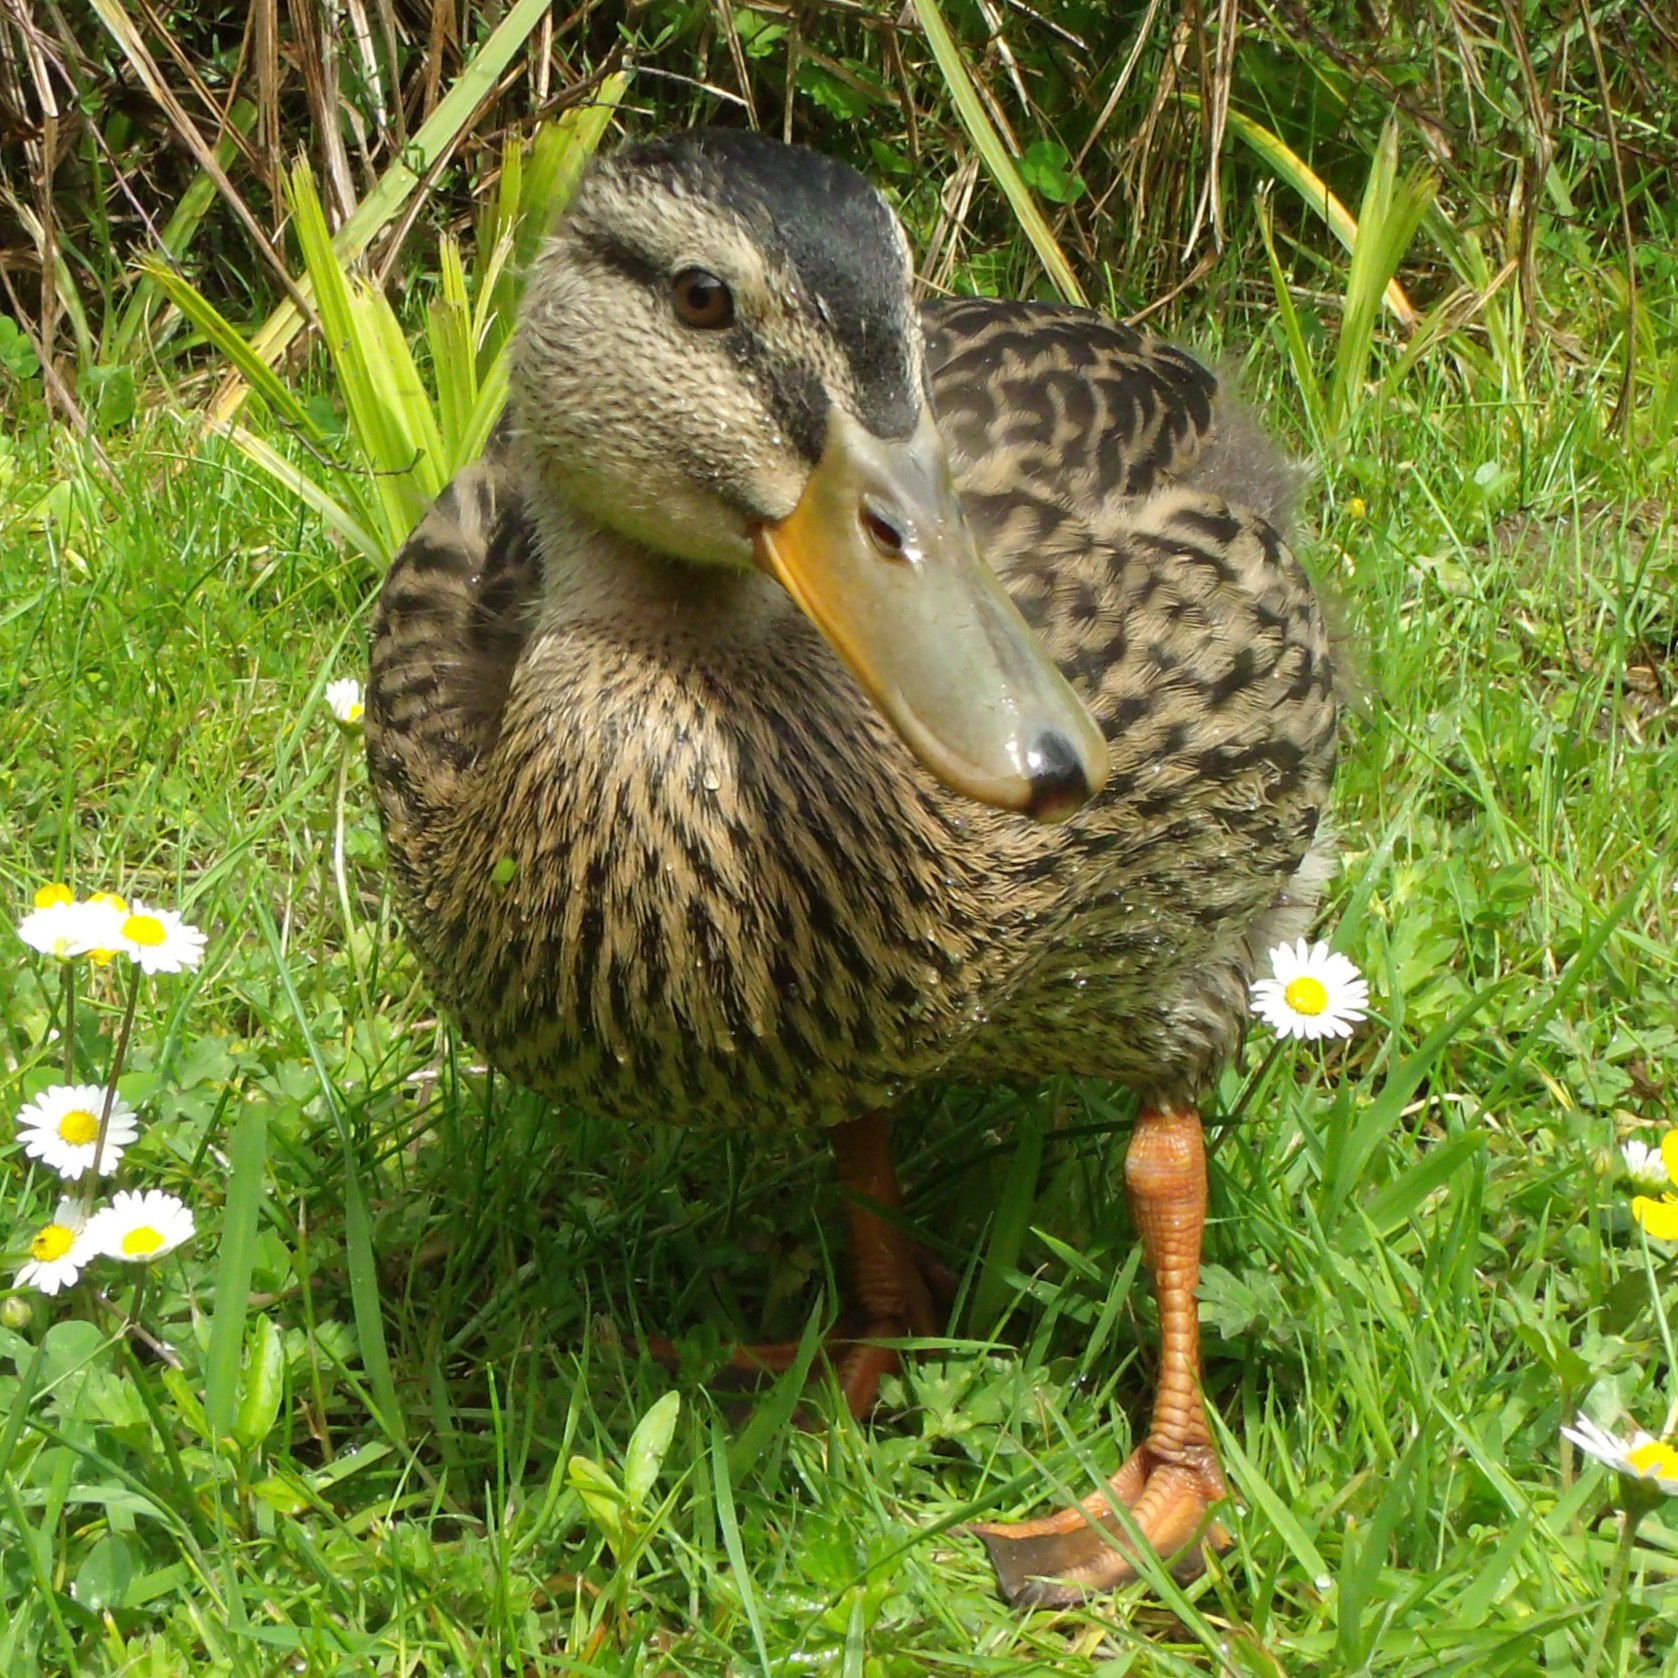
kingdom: Animalia
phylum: Chordata
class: Aves
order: Anseriformes
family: Anatidae
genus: Anas
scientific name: Anas platyrhynchos
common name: Mallard
